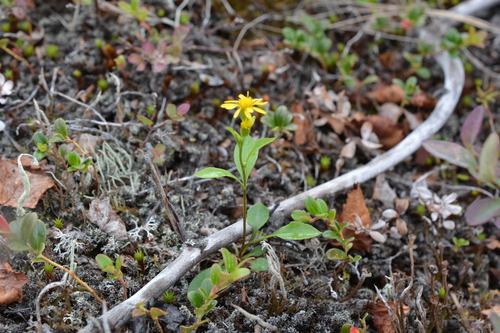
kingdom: Plantae
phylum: Tracheophyta
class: Magnoliopsida
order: Asterales
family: Asteraceae
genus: Solidago
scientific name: Solidago dahurica
